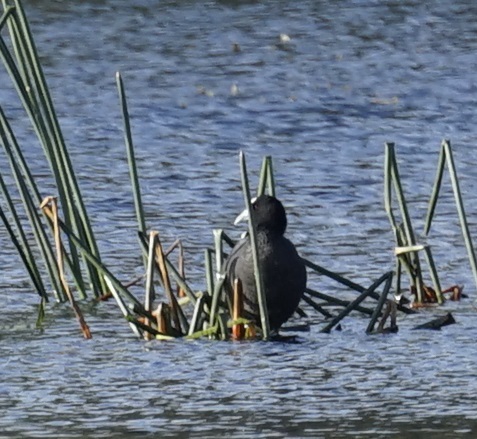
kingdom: Animalia
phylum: Chordata
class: Aves
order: Gruiformes
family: Rallidae
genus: Fulica
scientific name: Fulica atra
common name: Eurasian coot
